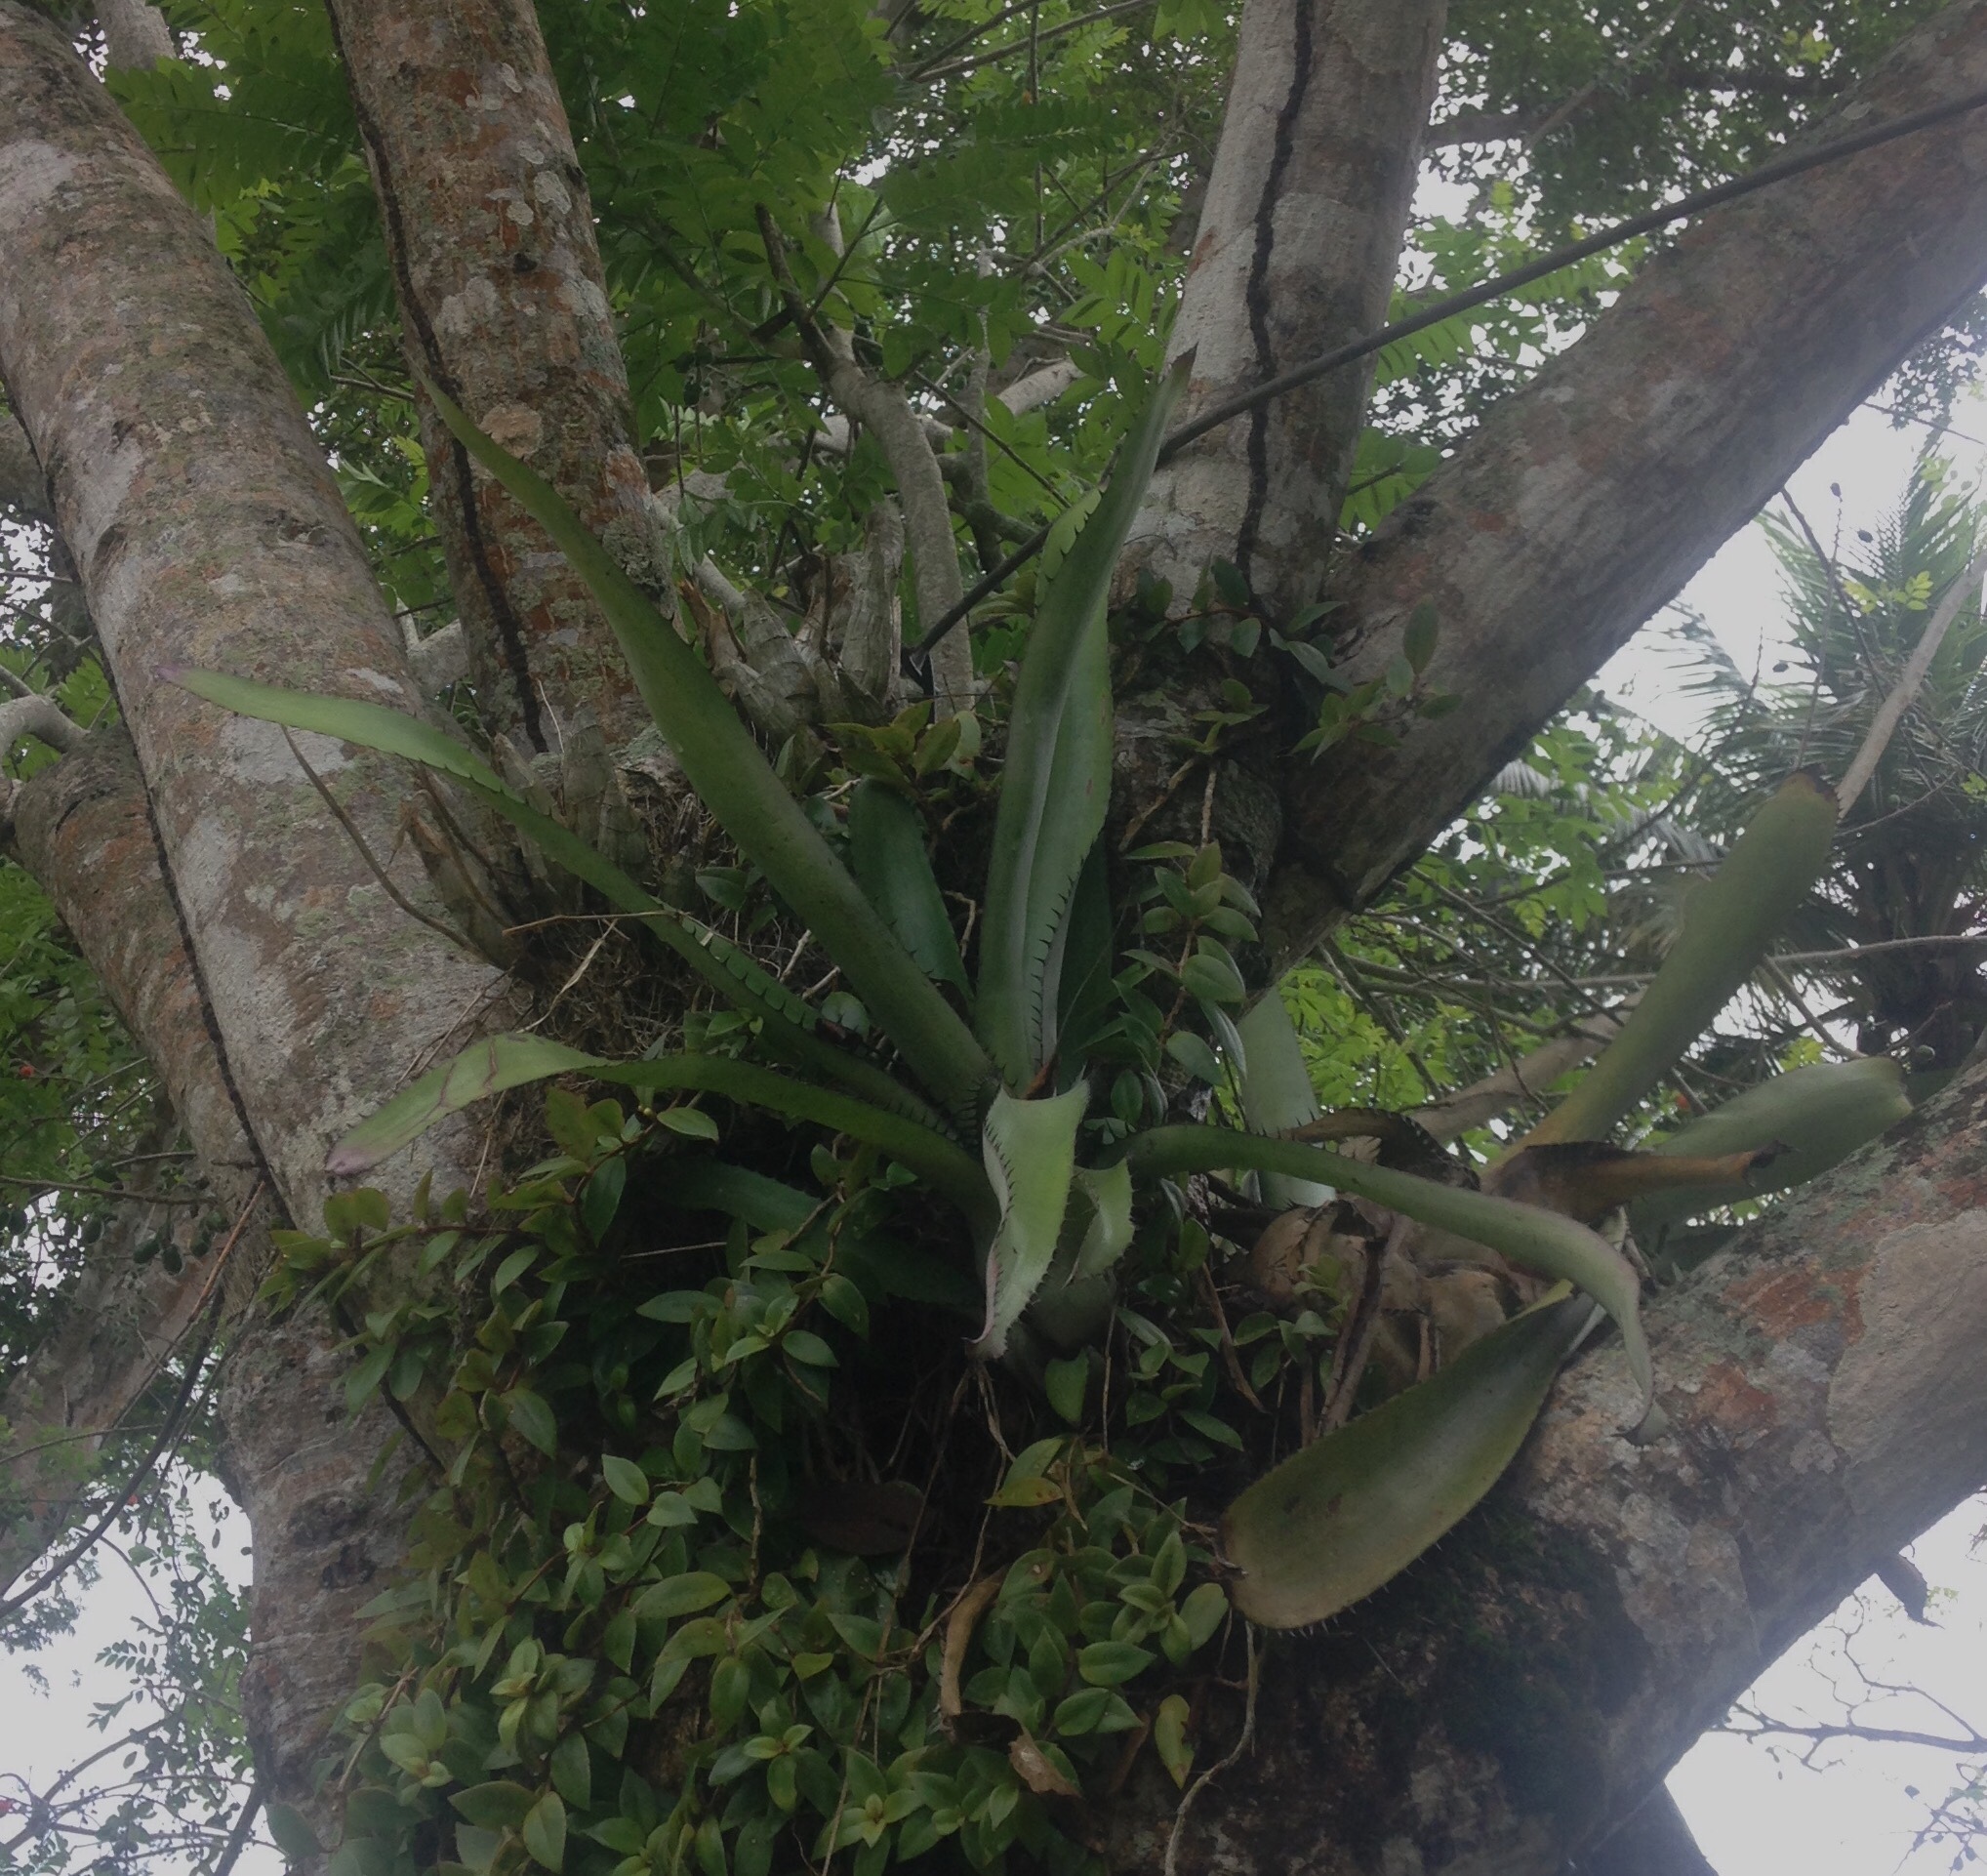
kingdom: Plantae
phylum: Tracheophyta
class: Liliopsida
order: Poales
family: Bromeliaceae
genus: Aechmea
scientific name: Aechmea setigera
